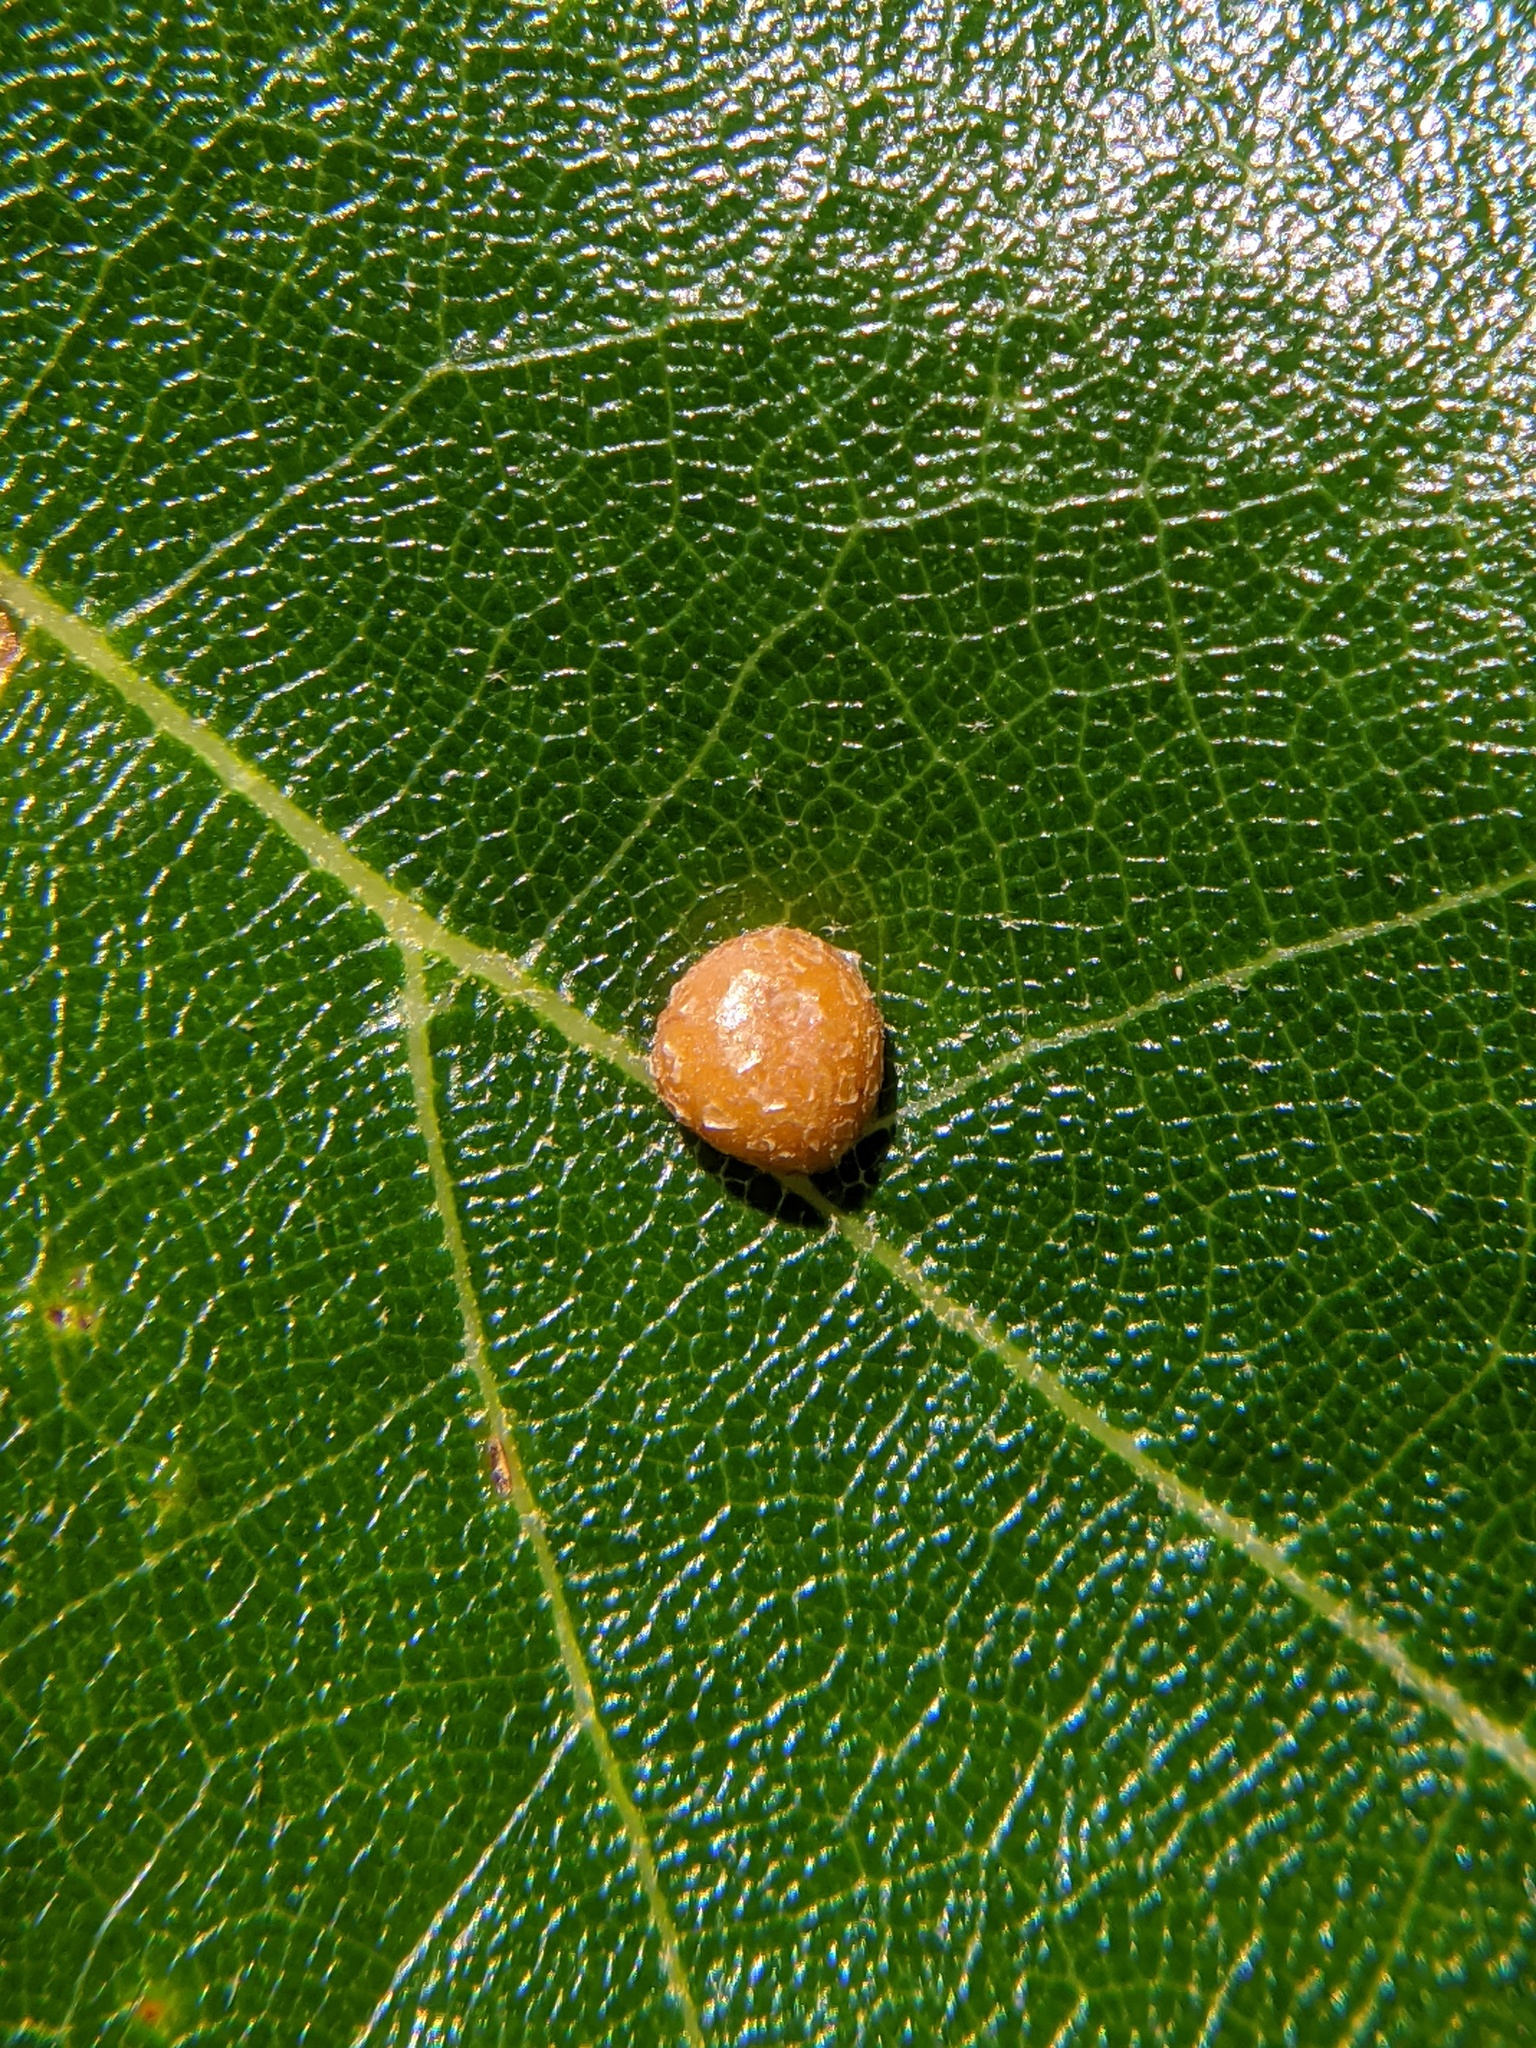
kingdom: Animalia
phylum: Arthropoda
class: Insecta
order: Diptera
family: Cecidomyiidae
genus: Polystepha
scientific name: Polystepha pilulae
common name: Oak leaf gall midge
